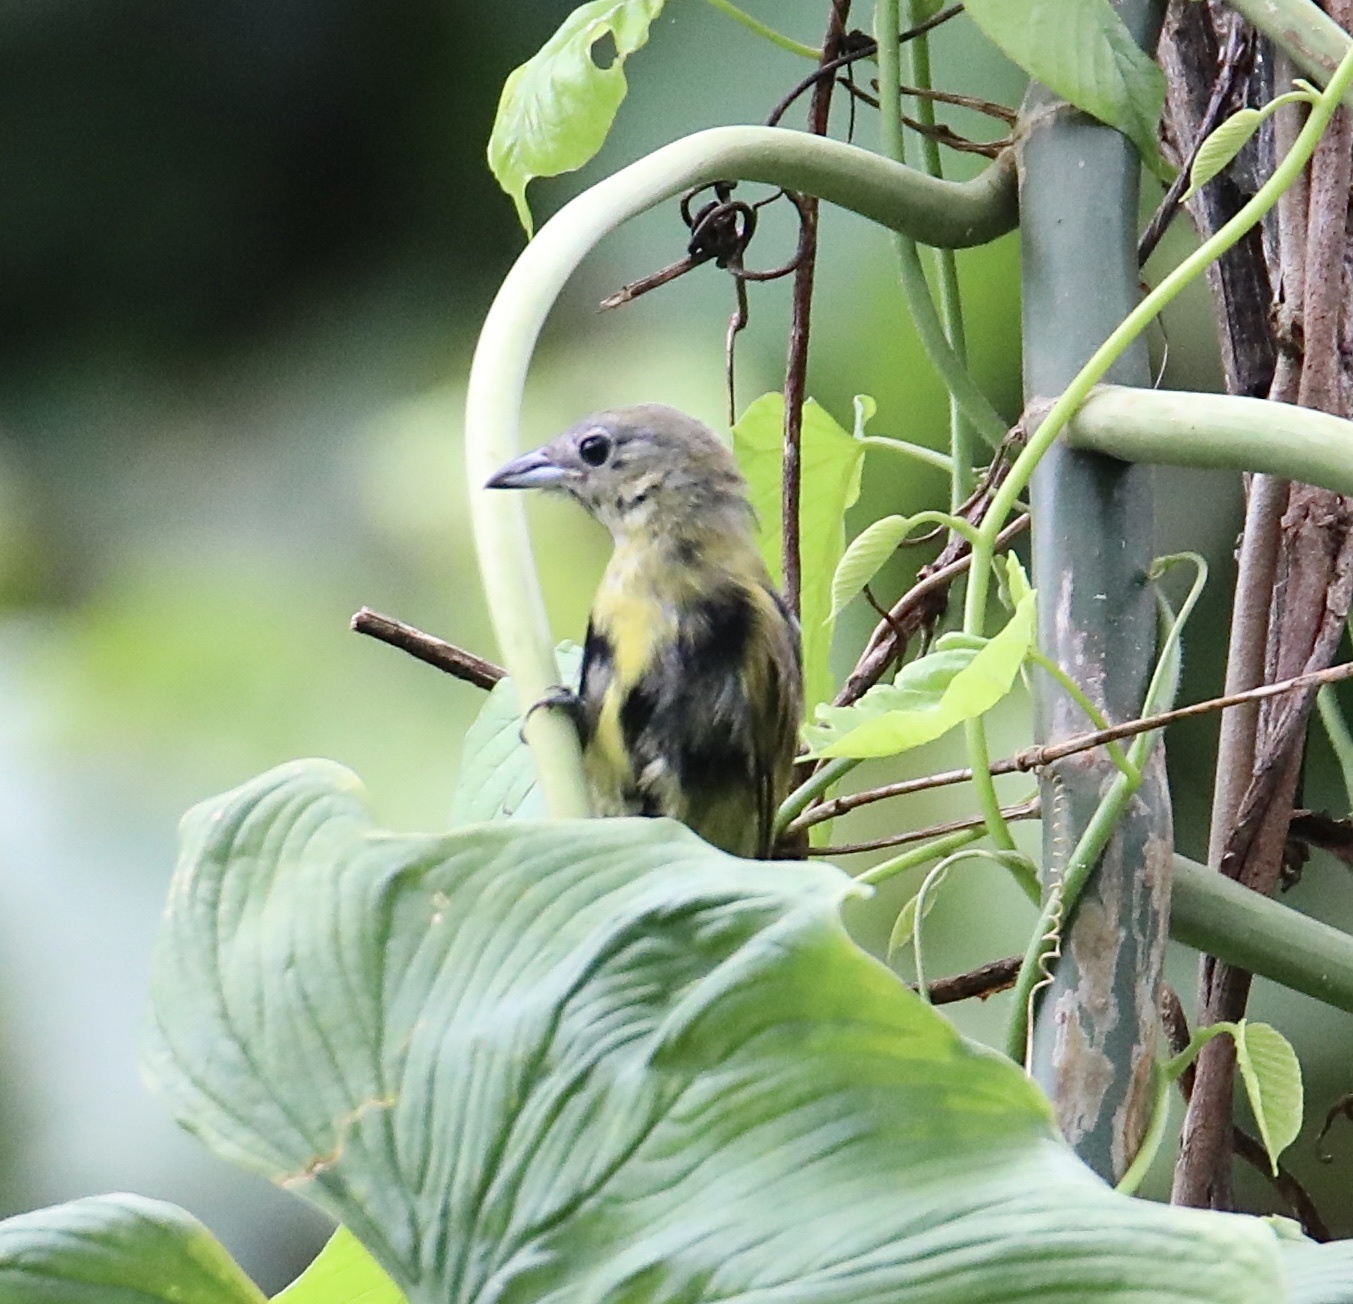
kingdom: Animalia
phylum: Chordata
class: Aves
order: Passeriformes
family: Thraupidae
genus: Loriotus
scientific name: Loriotus luctuosus
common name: White-shouldered tanager
